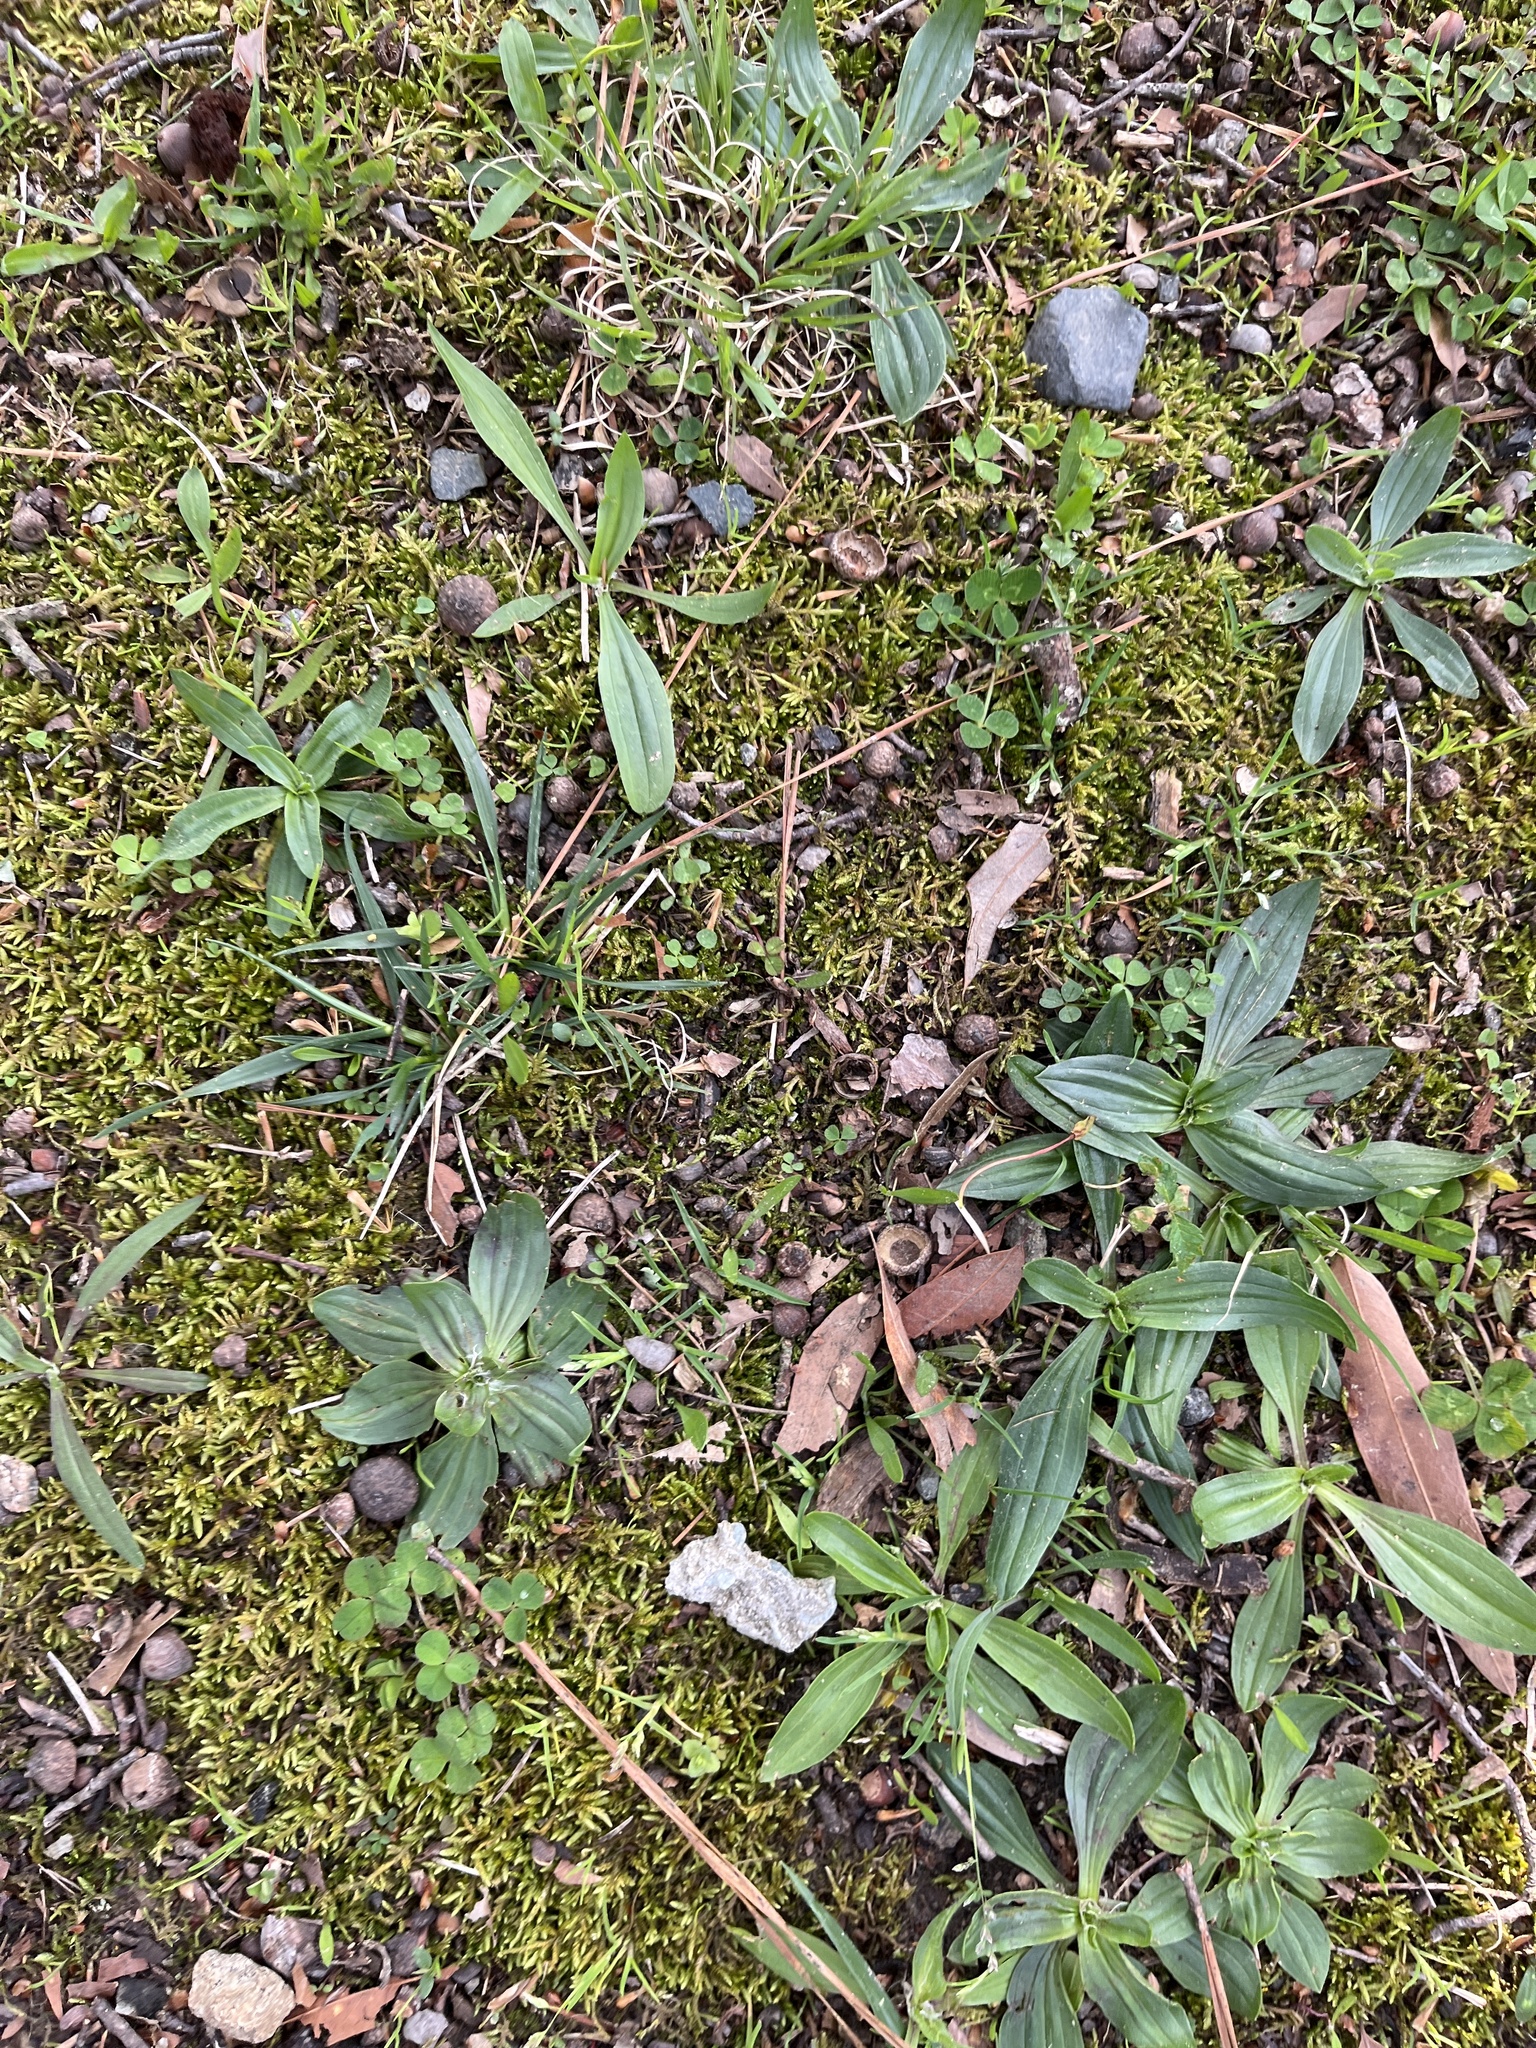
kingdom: Plantae
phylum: Tracheophyta
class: Magnoliopsida
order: Lamiales
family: Plantaginaceae
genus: Plantago
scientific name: Plantago lanceolata
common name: Ribwort plantain
